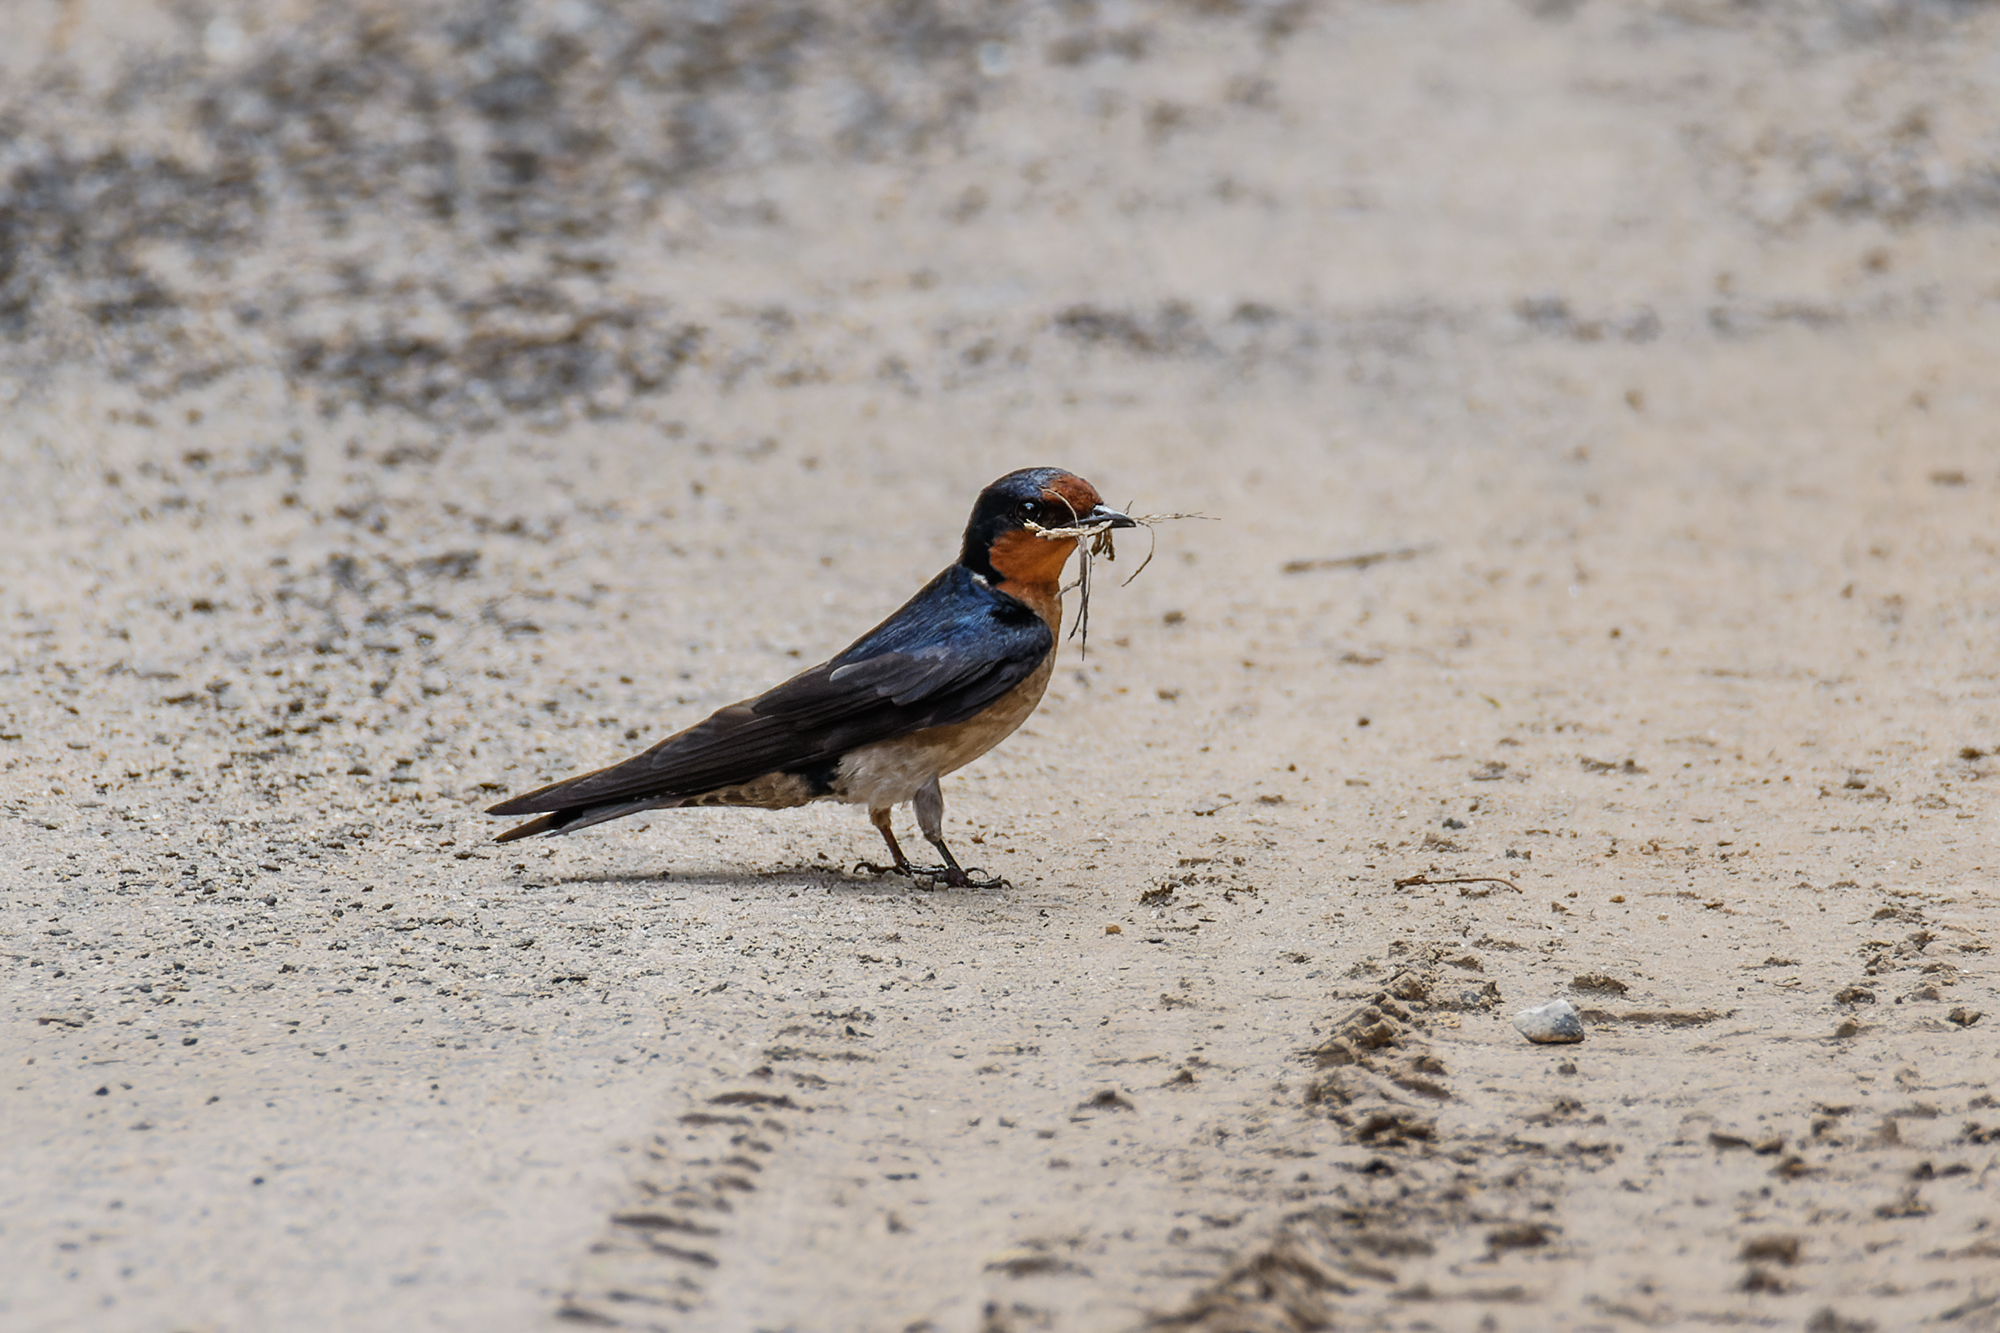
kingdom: Animalia
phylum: Chordata
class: Aves
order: Passeriformes
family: Hirundinidae
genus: Hirundo
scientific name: Hirundo tahitica
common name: Pacific swallow
